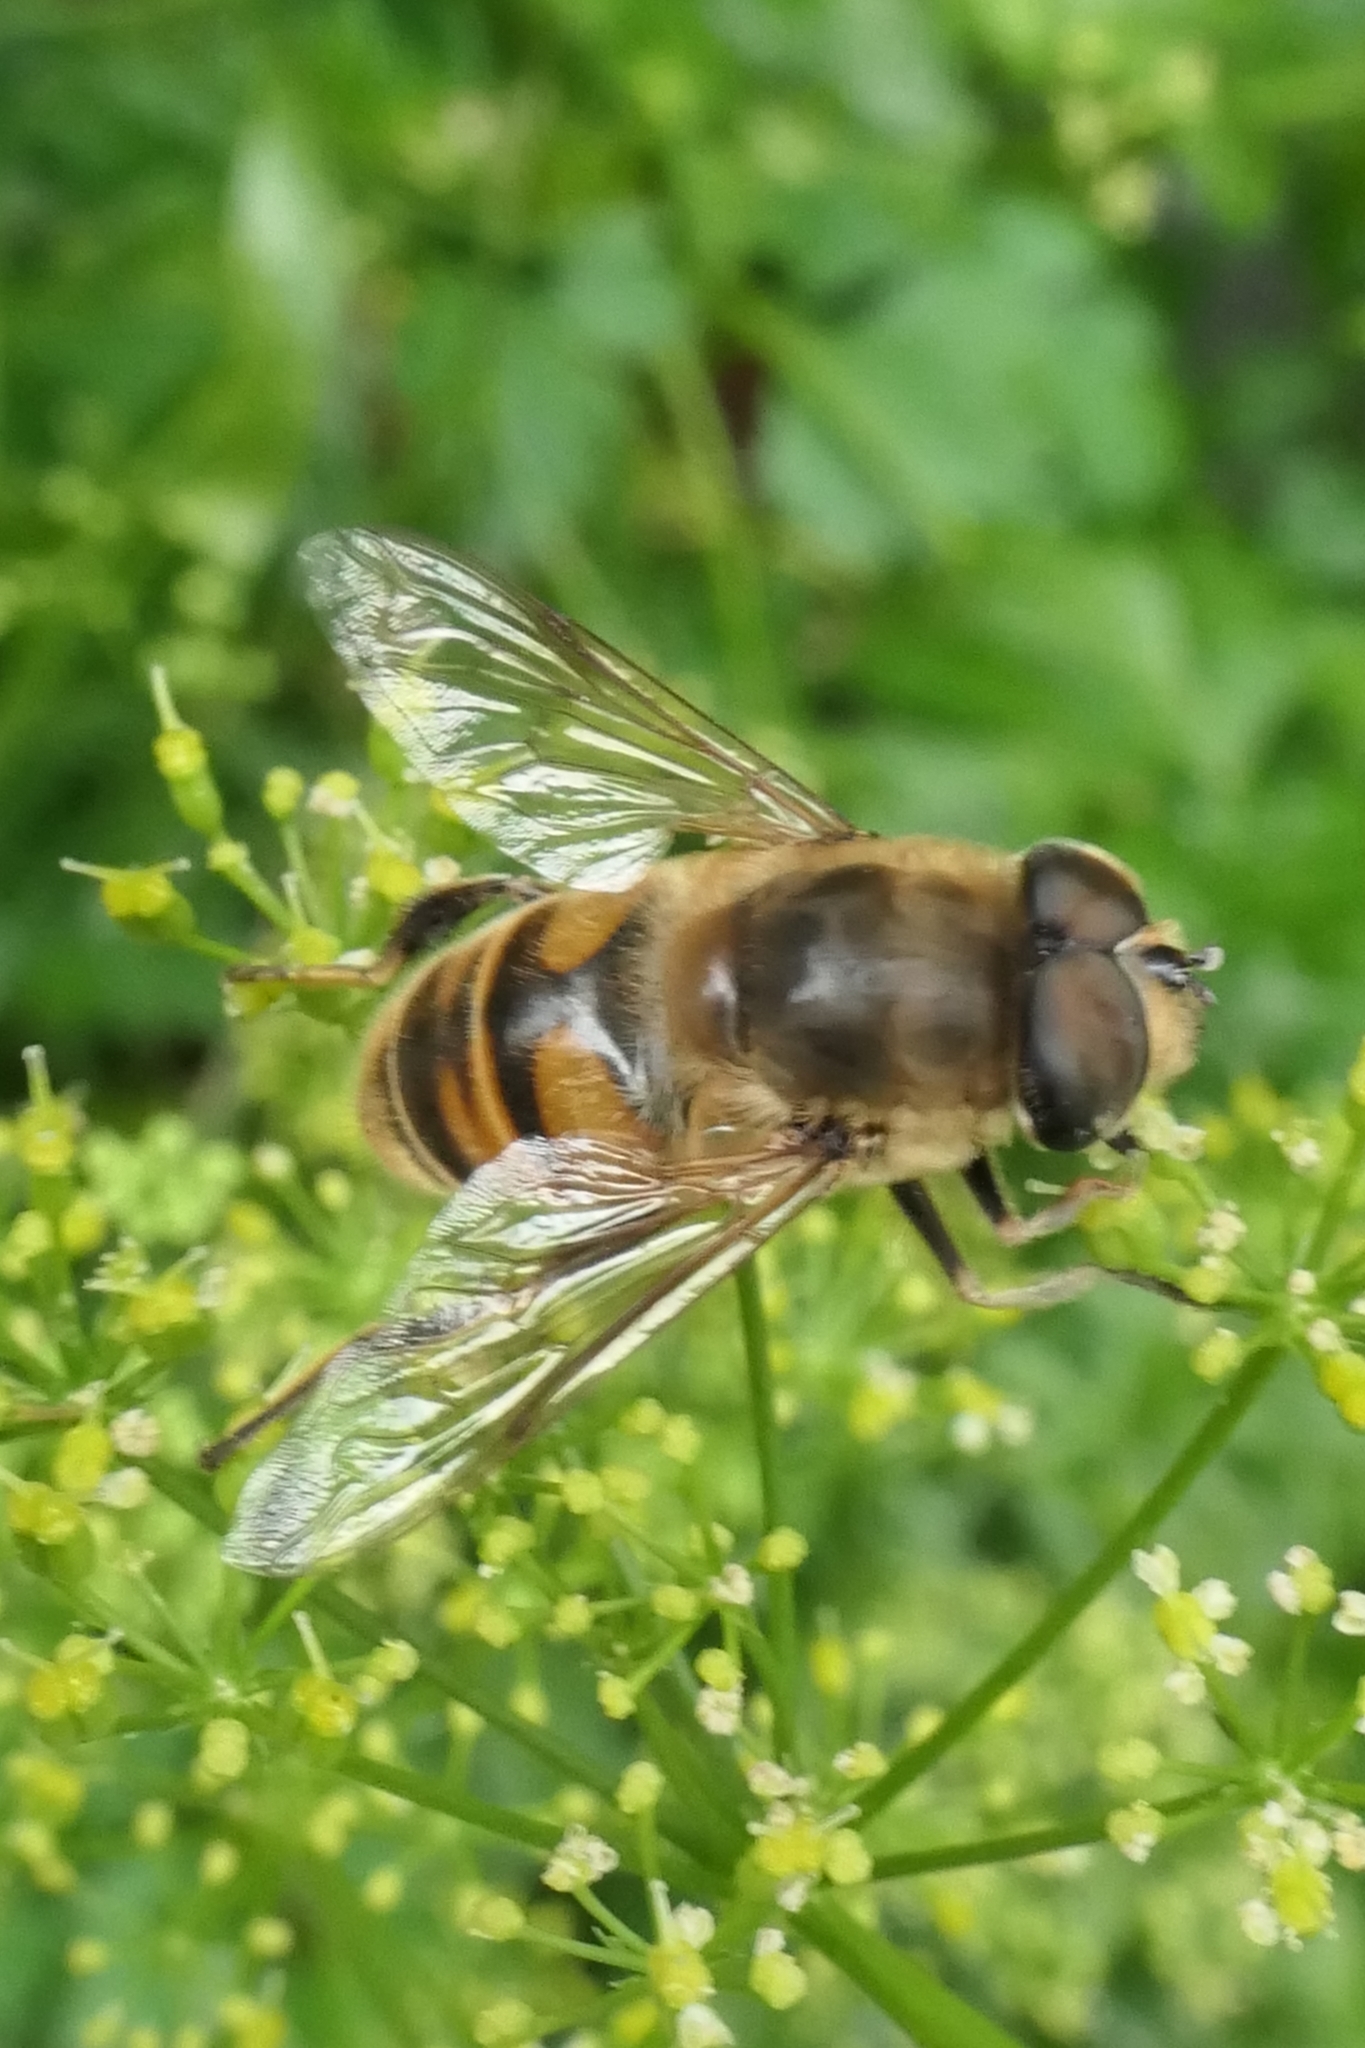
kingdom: Animalia
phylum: Arthropoda
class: Insecta
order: Diptera
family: Syrphidae
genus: Eristalis
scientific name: Eristalis tenax
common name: Drone fly
